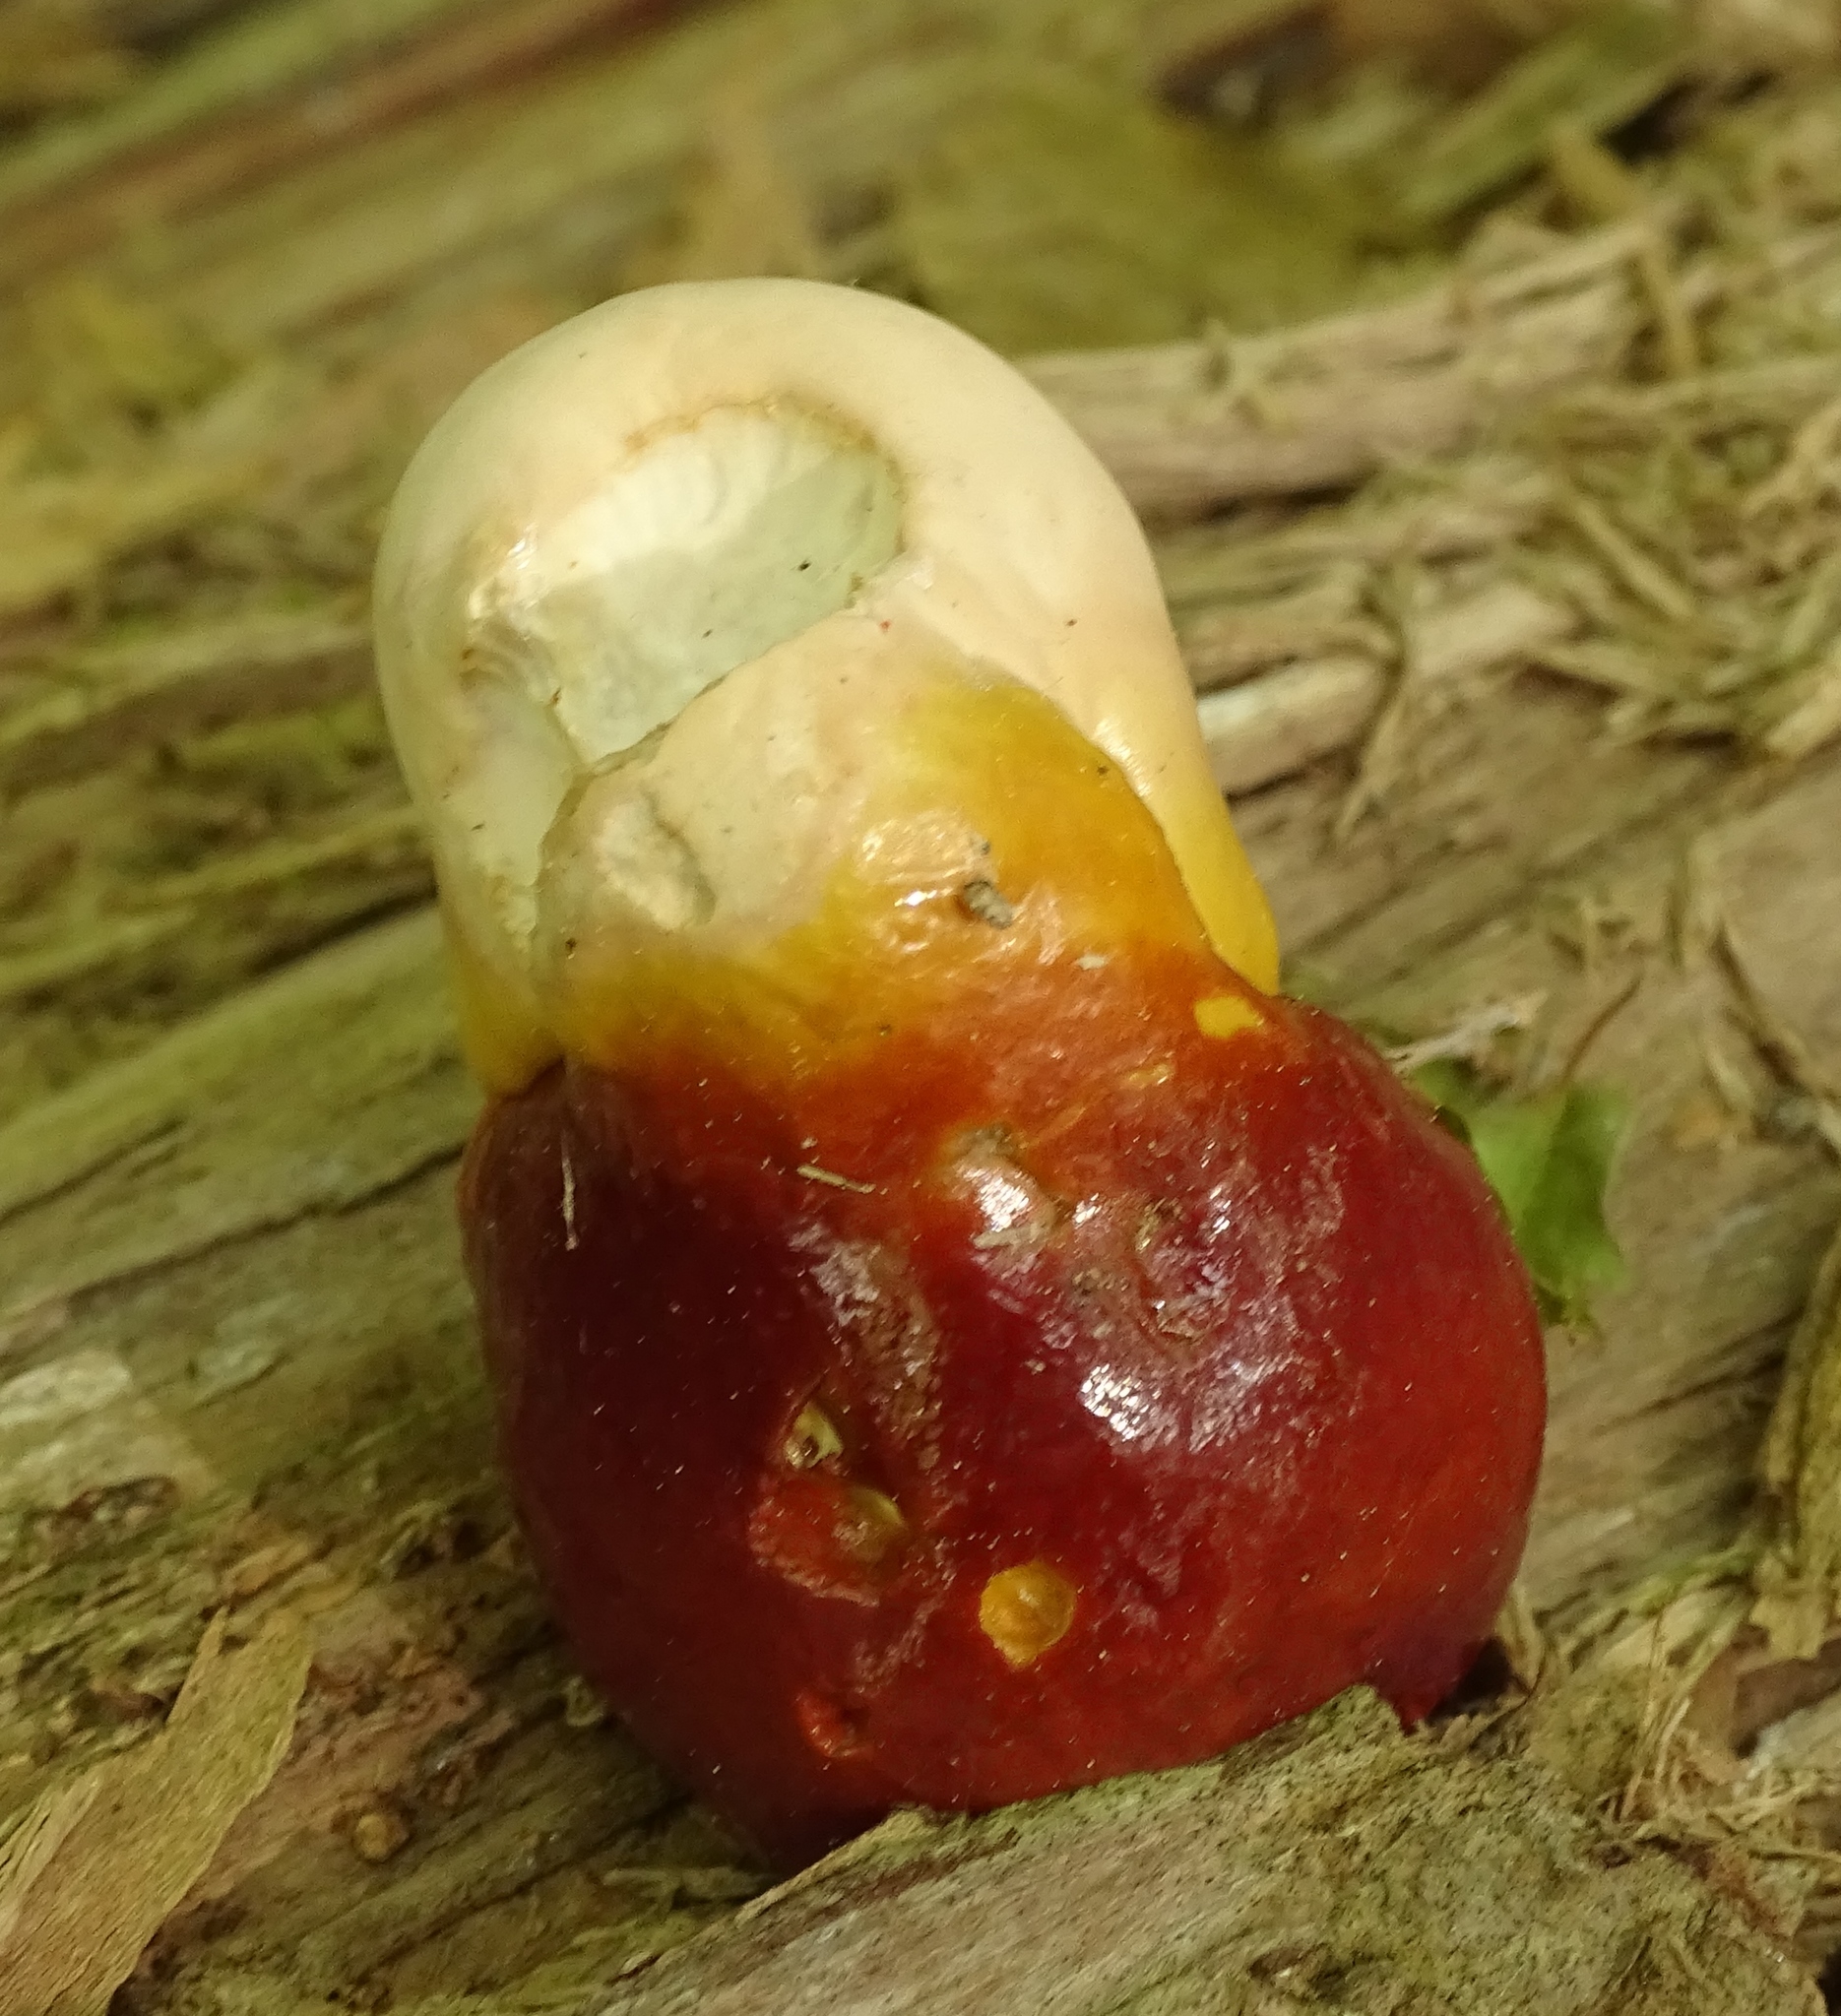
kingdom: Fungi
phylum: Basidiomycota
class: Agaricomycetes
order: Polyporales
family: Polyporaceae
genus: Ganoderma
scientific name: Ganoderma tsugae
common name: Hemlock varnish shelf
